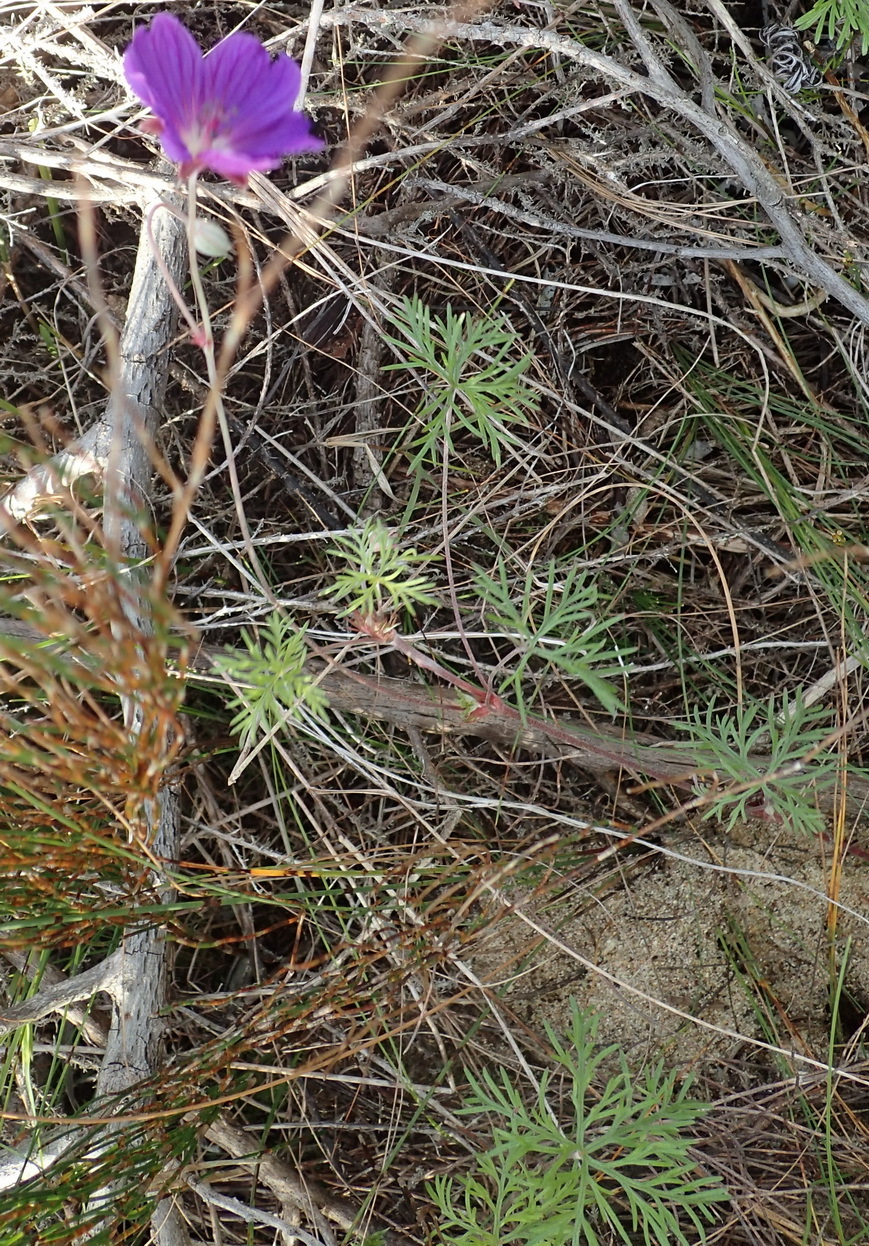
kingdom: Plantae
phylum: Tracheophyta
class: Magnoliopsida
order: Geraniales
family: Geraniaceae
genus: Geranium
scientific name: Geranium incanum
